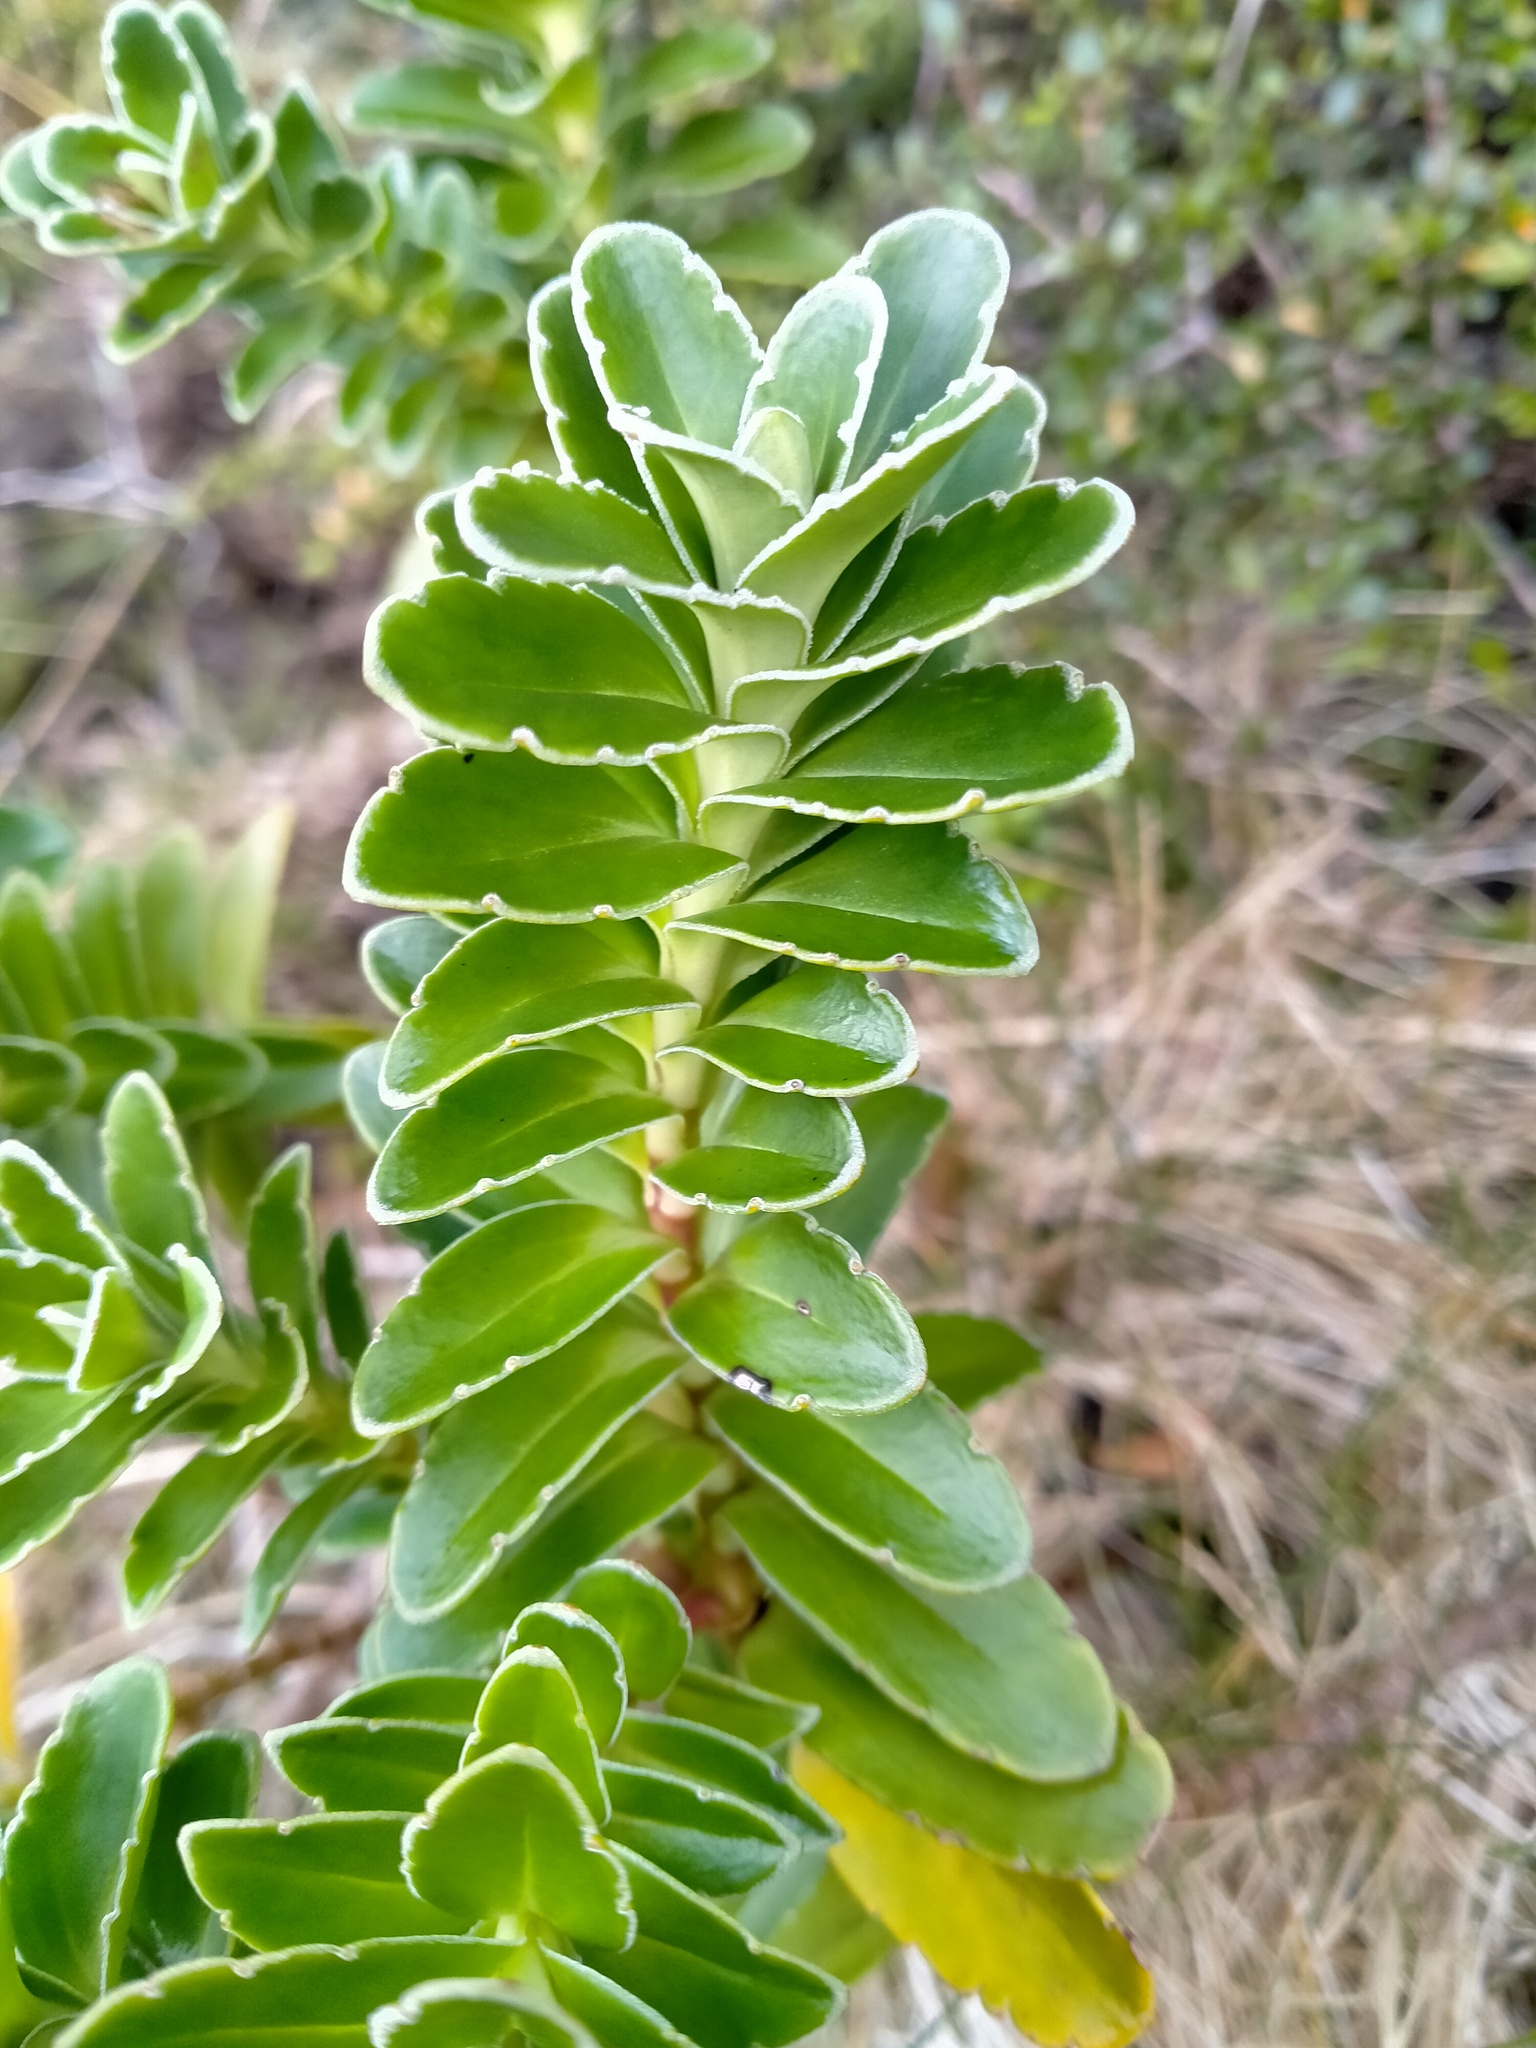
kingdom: Plantae
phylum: Tracheophyta
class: Magnoliopsida
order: Lamiales
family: Plantaginaceae
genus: Veronica
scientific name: Veronica benthamii
